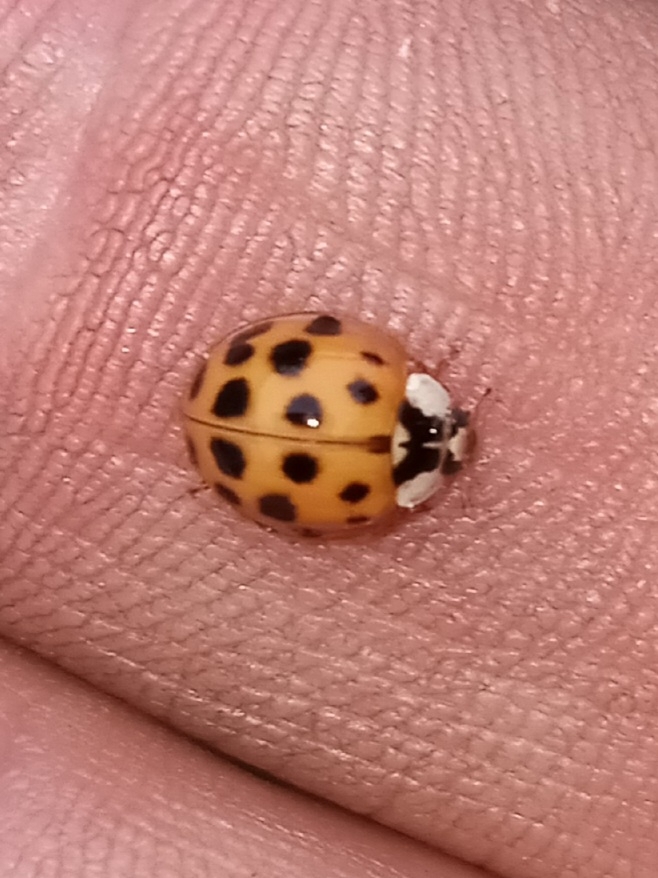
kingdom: Animalia
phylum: Arthropoda
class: Insecta
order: Coleoptera
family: Coccinellidae
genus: Harmonia
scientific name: Harmonia axyridis
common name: Harlequin ladybird
